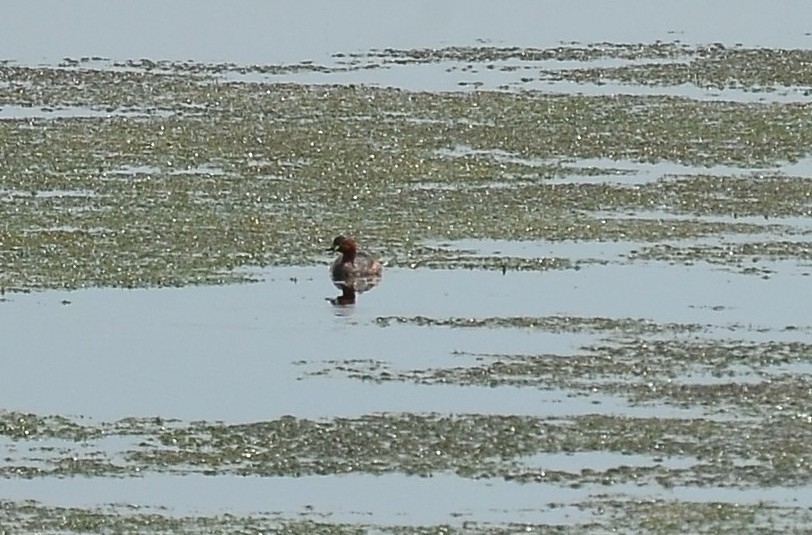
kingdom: Animalia
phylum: Chordata
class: Aves
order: Podicipediformes
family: Podicipedidae
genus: Tachybaptus
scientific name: Tachybaptus ruficollis
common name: Little grebe
